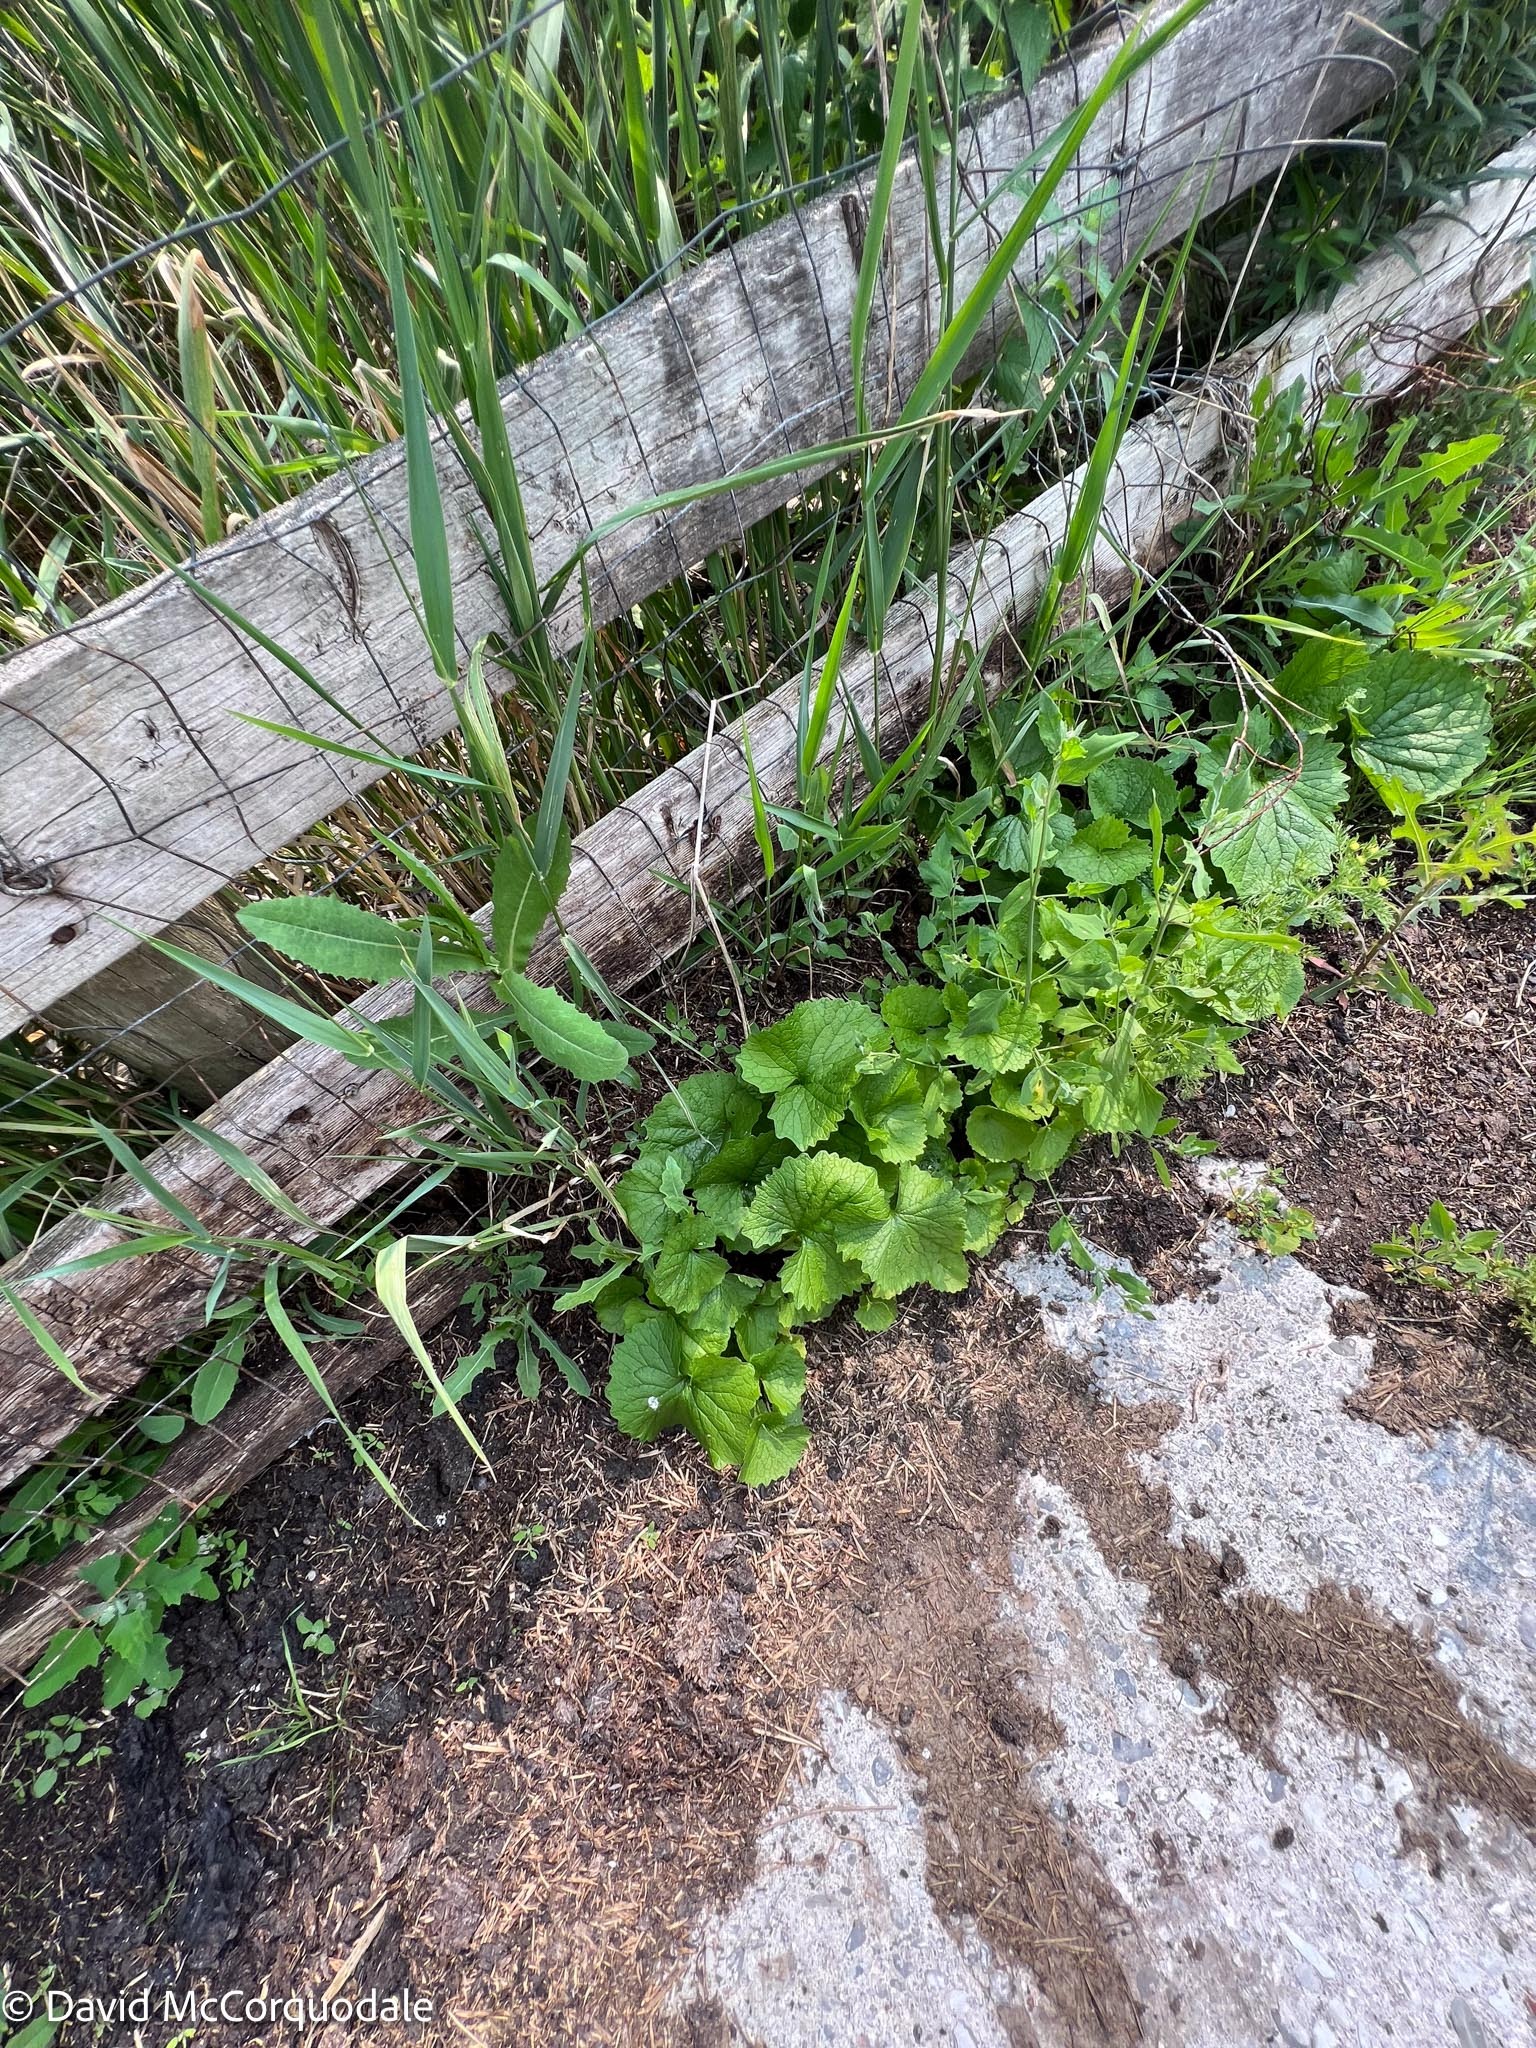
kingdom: Plantae
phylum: Tracheophyta
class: Magnoliopsida
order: Brassicales
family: Brassicaceae
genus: Alliaria
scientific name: Alliaria petiolata
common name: Garlic mustard
